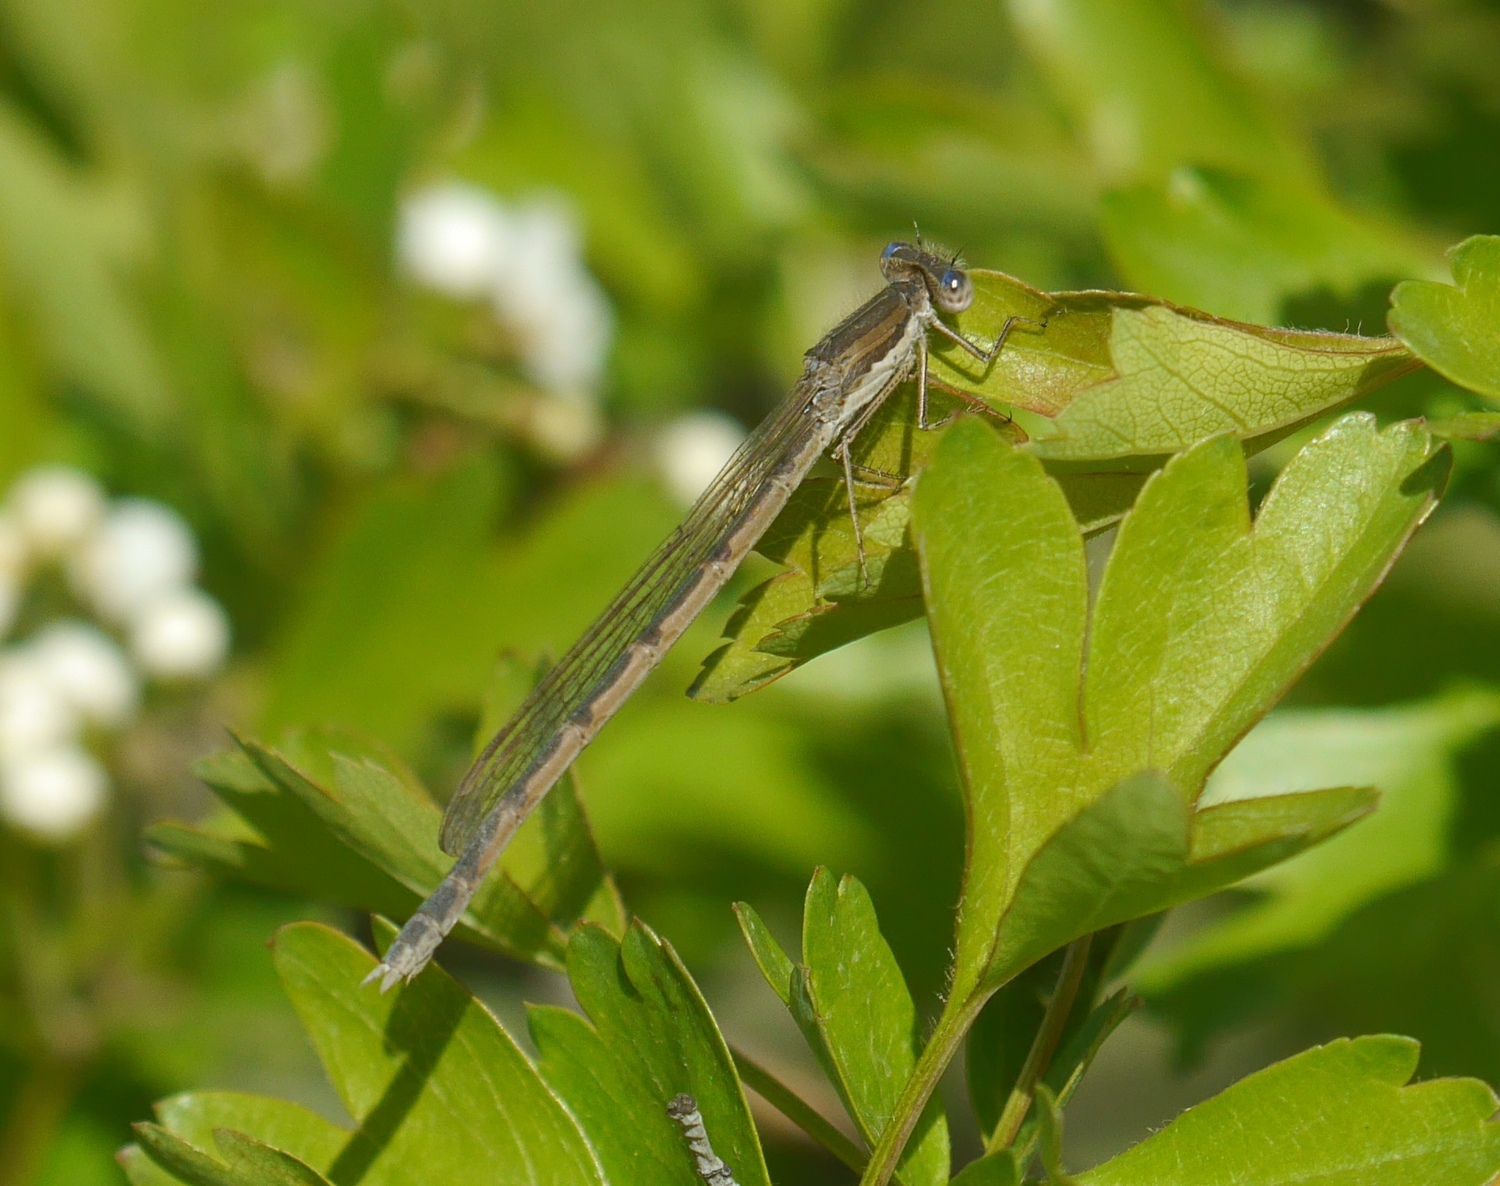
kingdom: Animalia
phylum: Arthropoda
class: Insecta
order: Odonata
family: Lestidae
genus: Sympecma
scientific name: Sympecma fusca
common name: Common winter damsel
